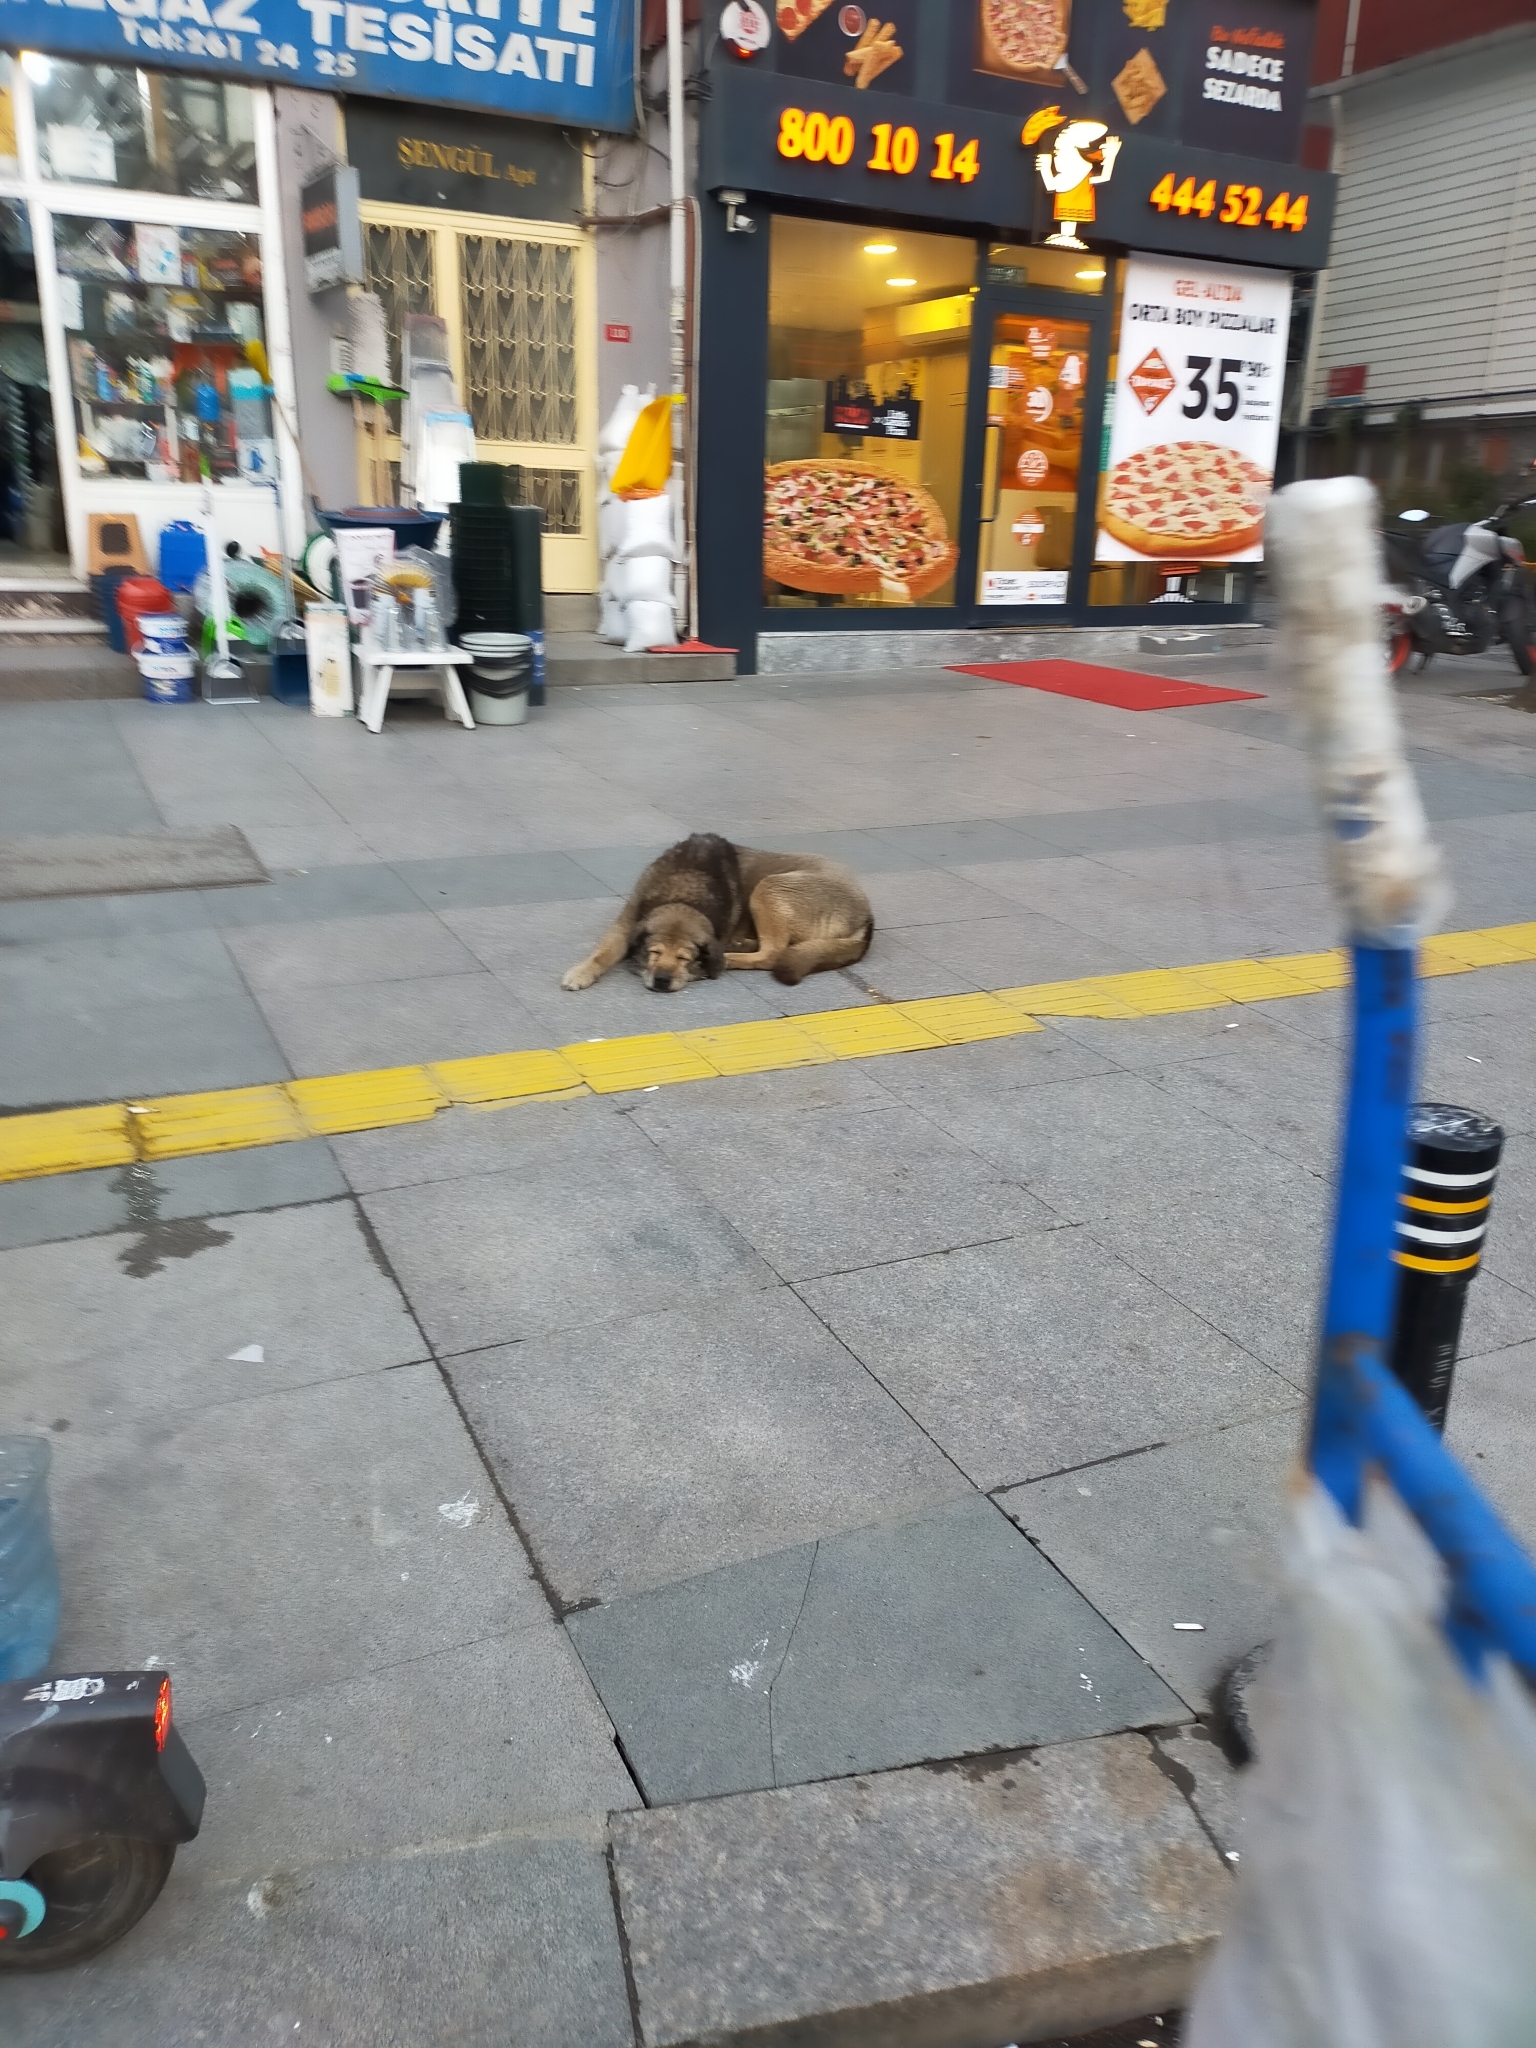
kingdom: Animalia
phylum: Chordata
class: Mammalia
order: Carnivora
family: Canidae
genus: Canis
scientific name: Canis lupus
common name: Gray wolf
